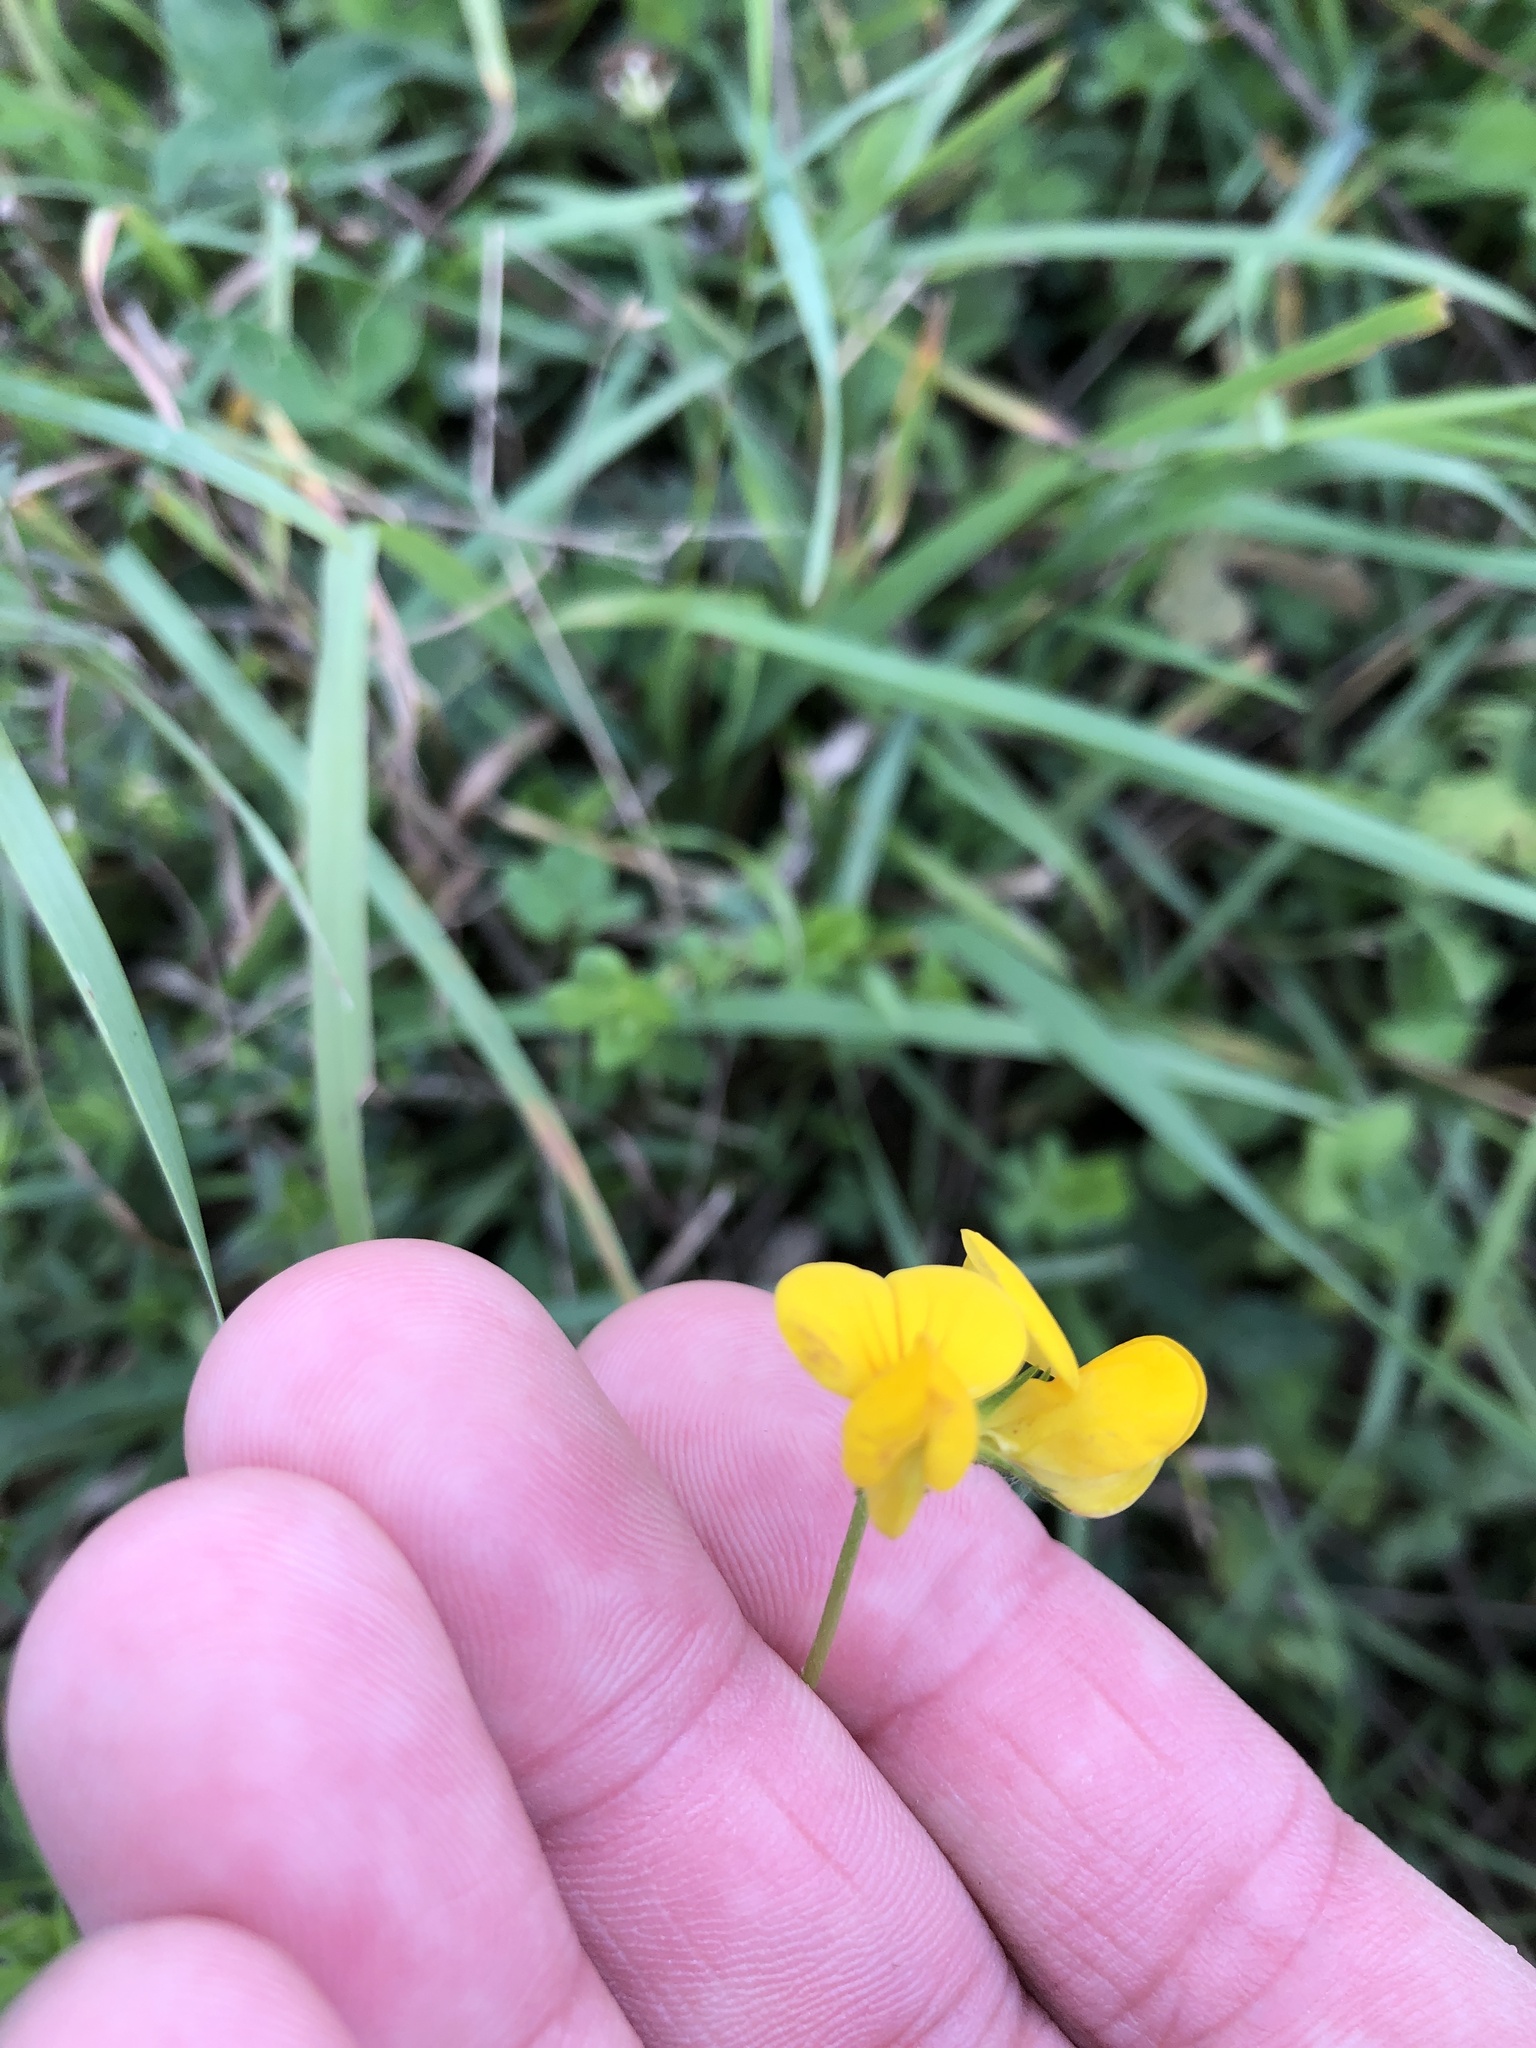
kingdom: Plantae
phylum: Tracheophyta
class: Magnoliopsida
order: Fabales
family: Fabaceae
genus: Lotus
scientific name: Lotus corniculatus
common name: Common bird's-foot-trefoil
